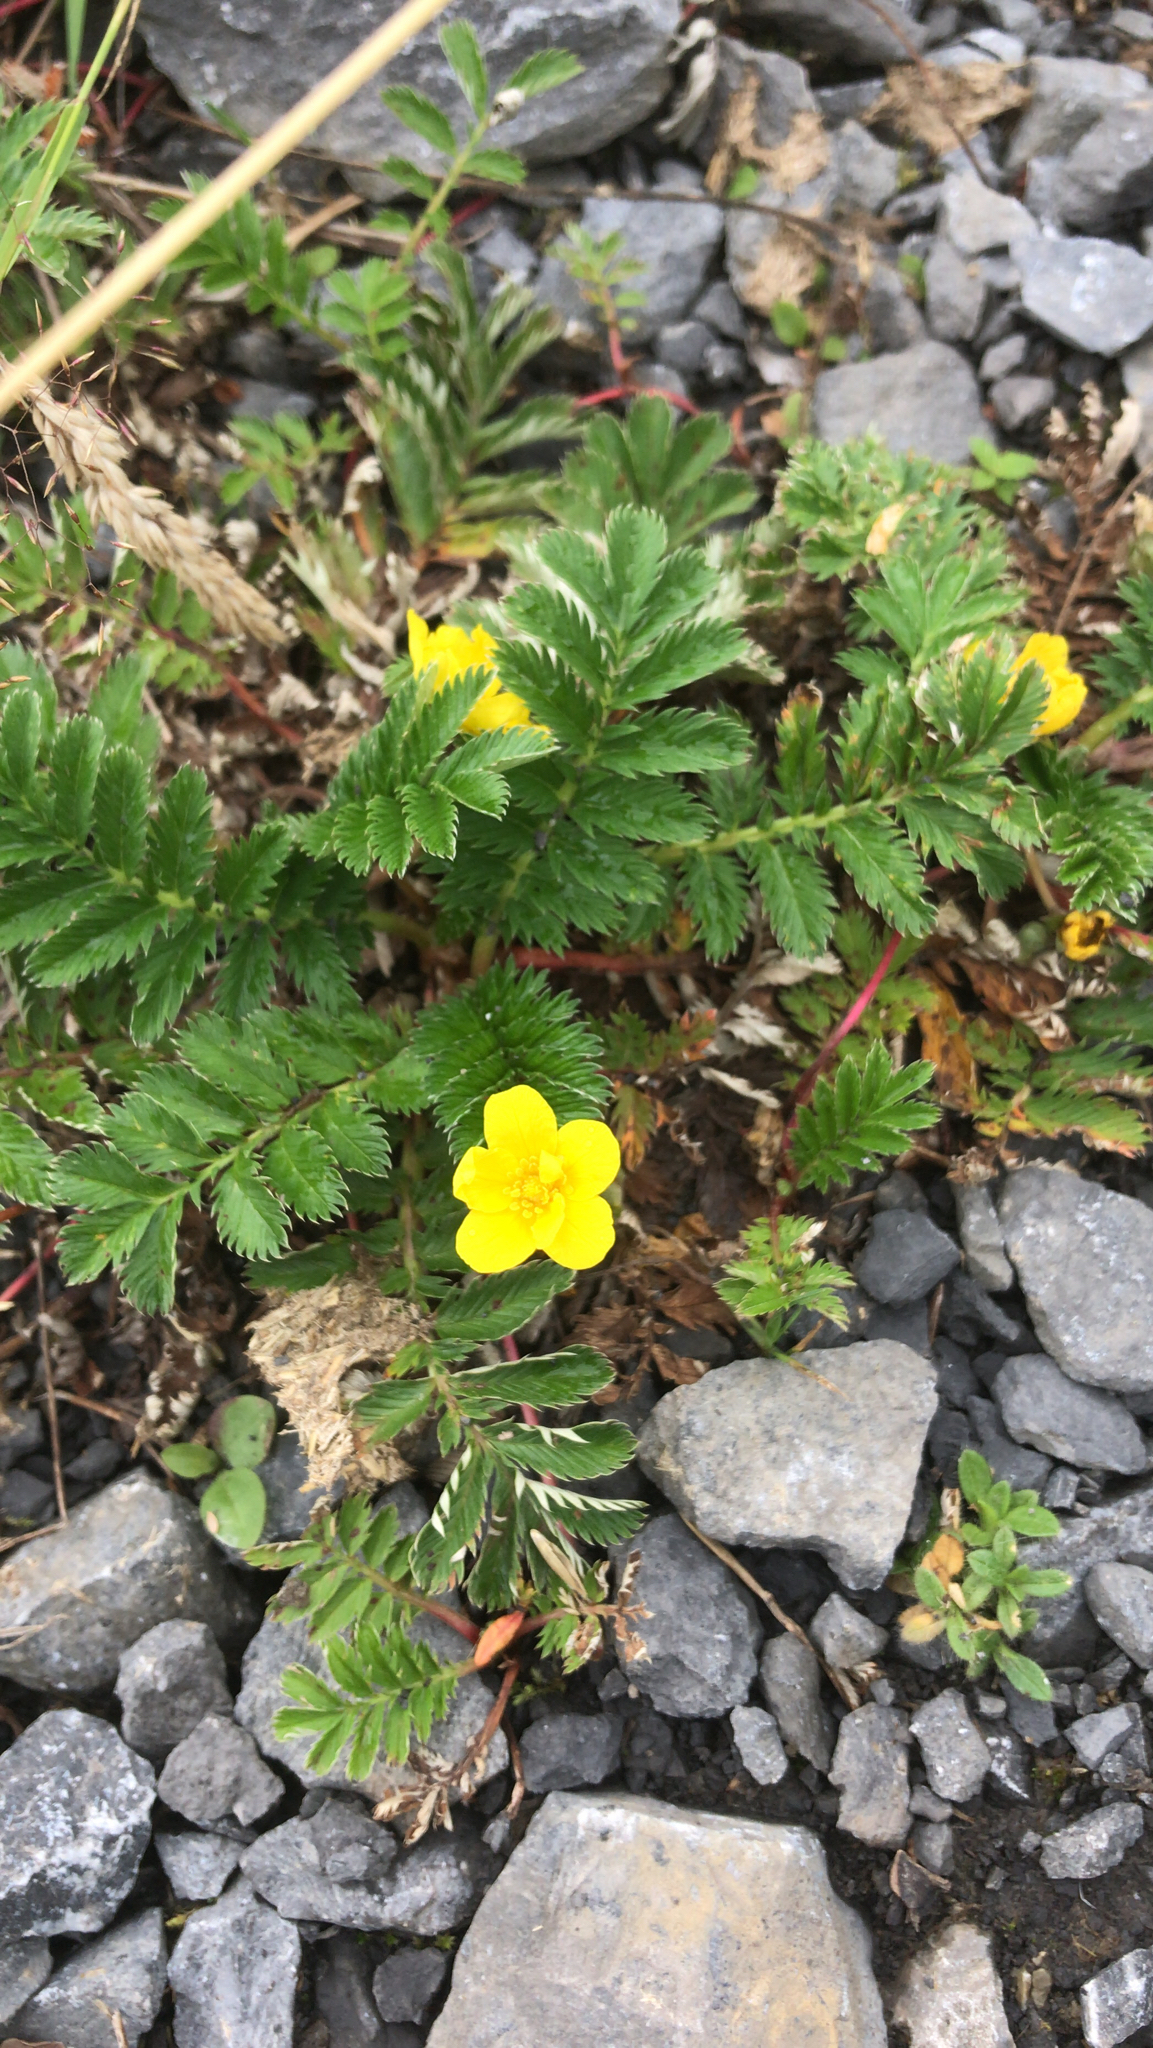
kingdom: Plantae
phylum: Tracheophyta
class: Magnoliopsida
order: Rosales
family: Rosaceae
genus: Argentina
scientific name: Argentina anserina
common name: Common silverweed
